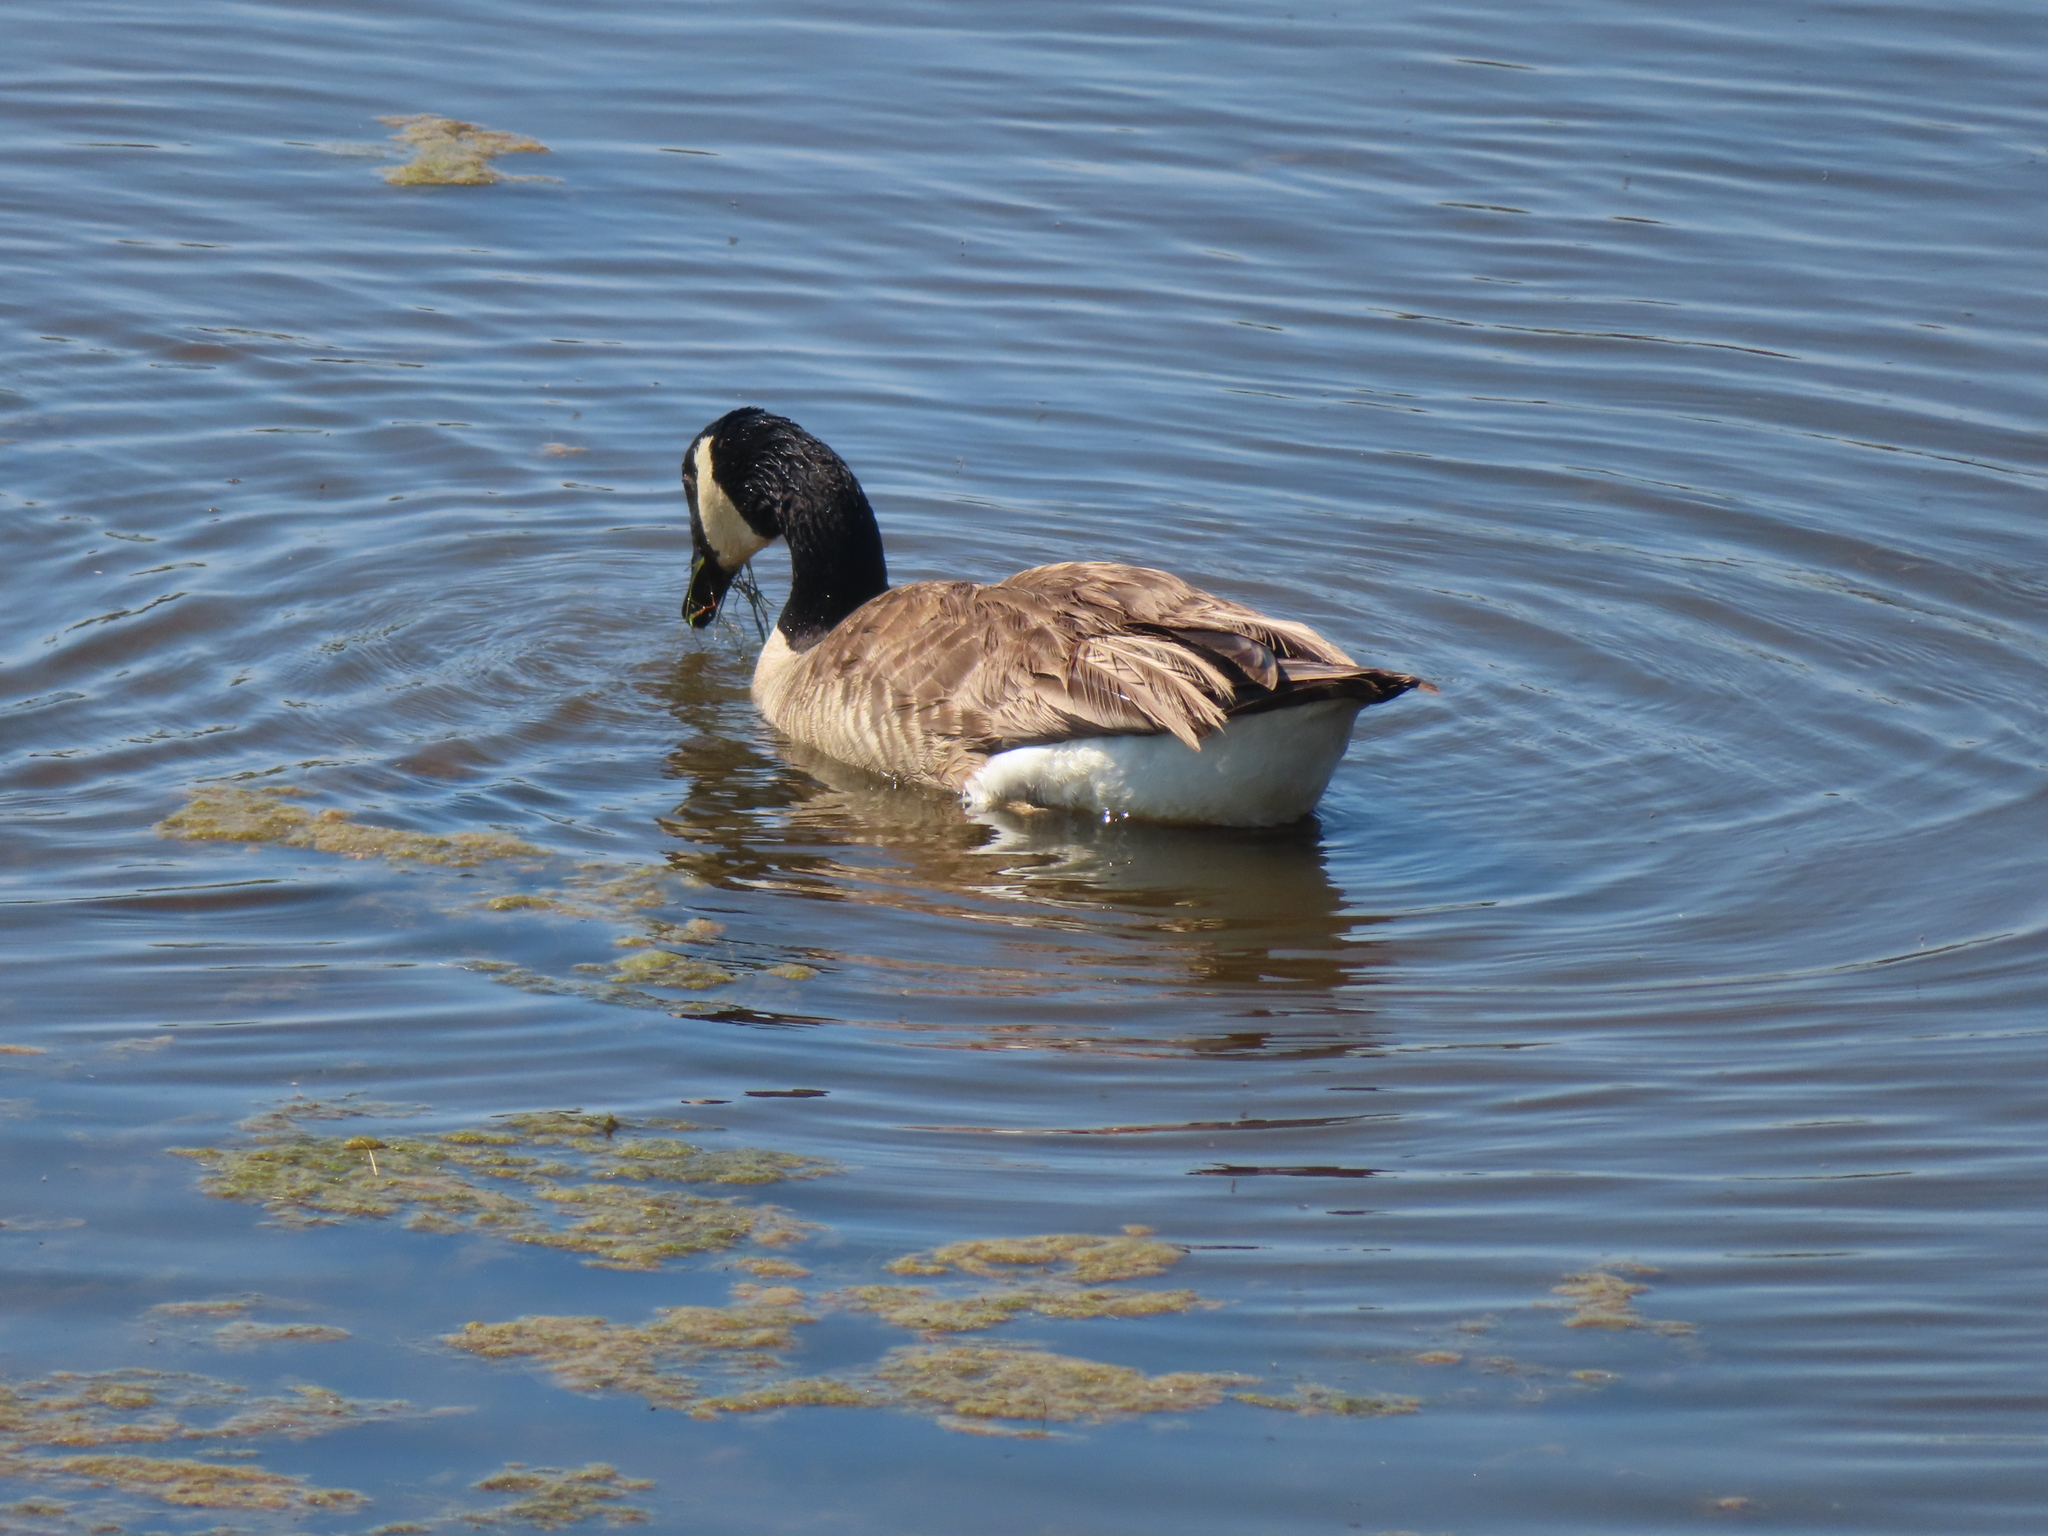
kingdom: Animalia
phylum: Chordata
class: Aves
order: Anseriformes
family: Anatidae
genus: Branta
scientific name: Branta canadensis
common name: Canada goose
